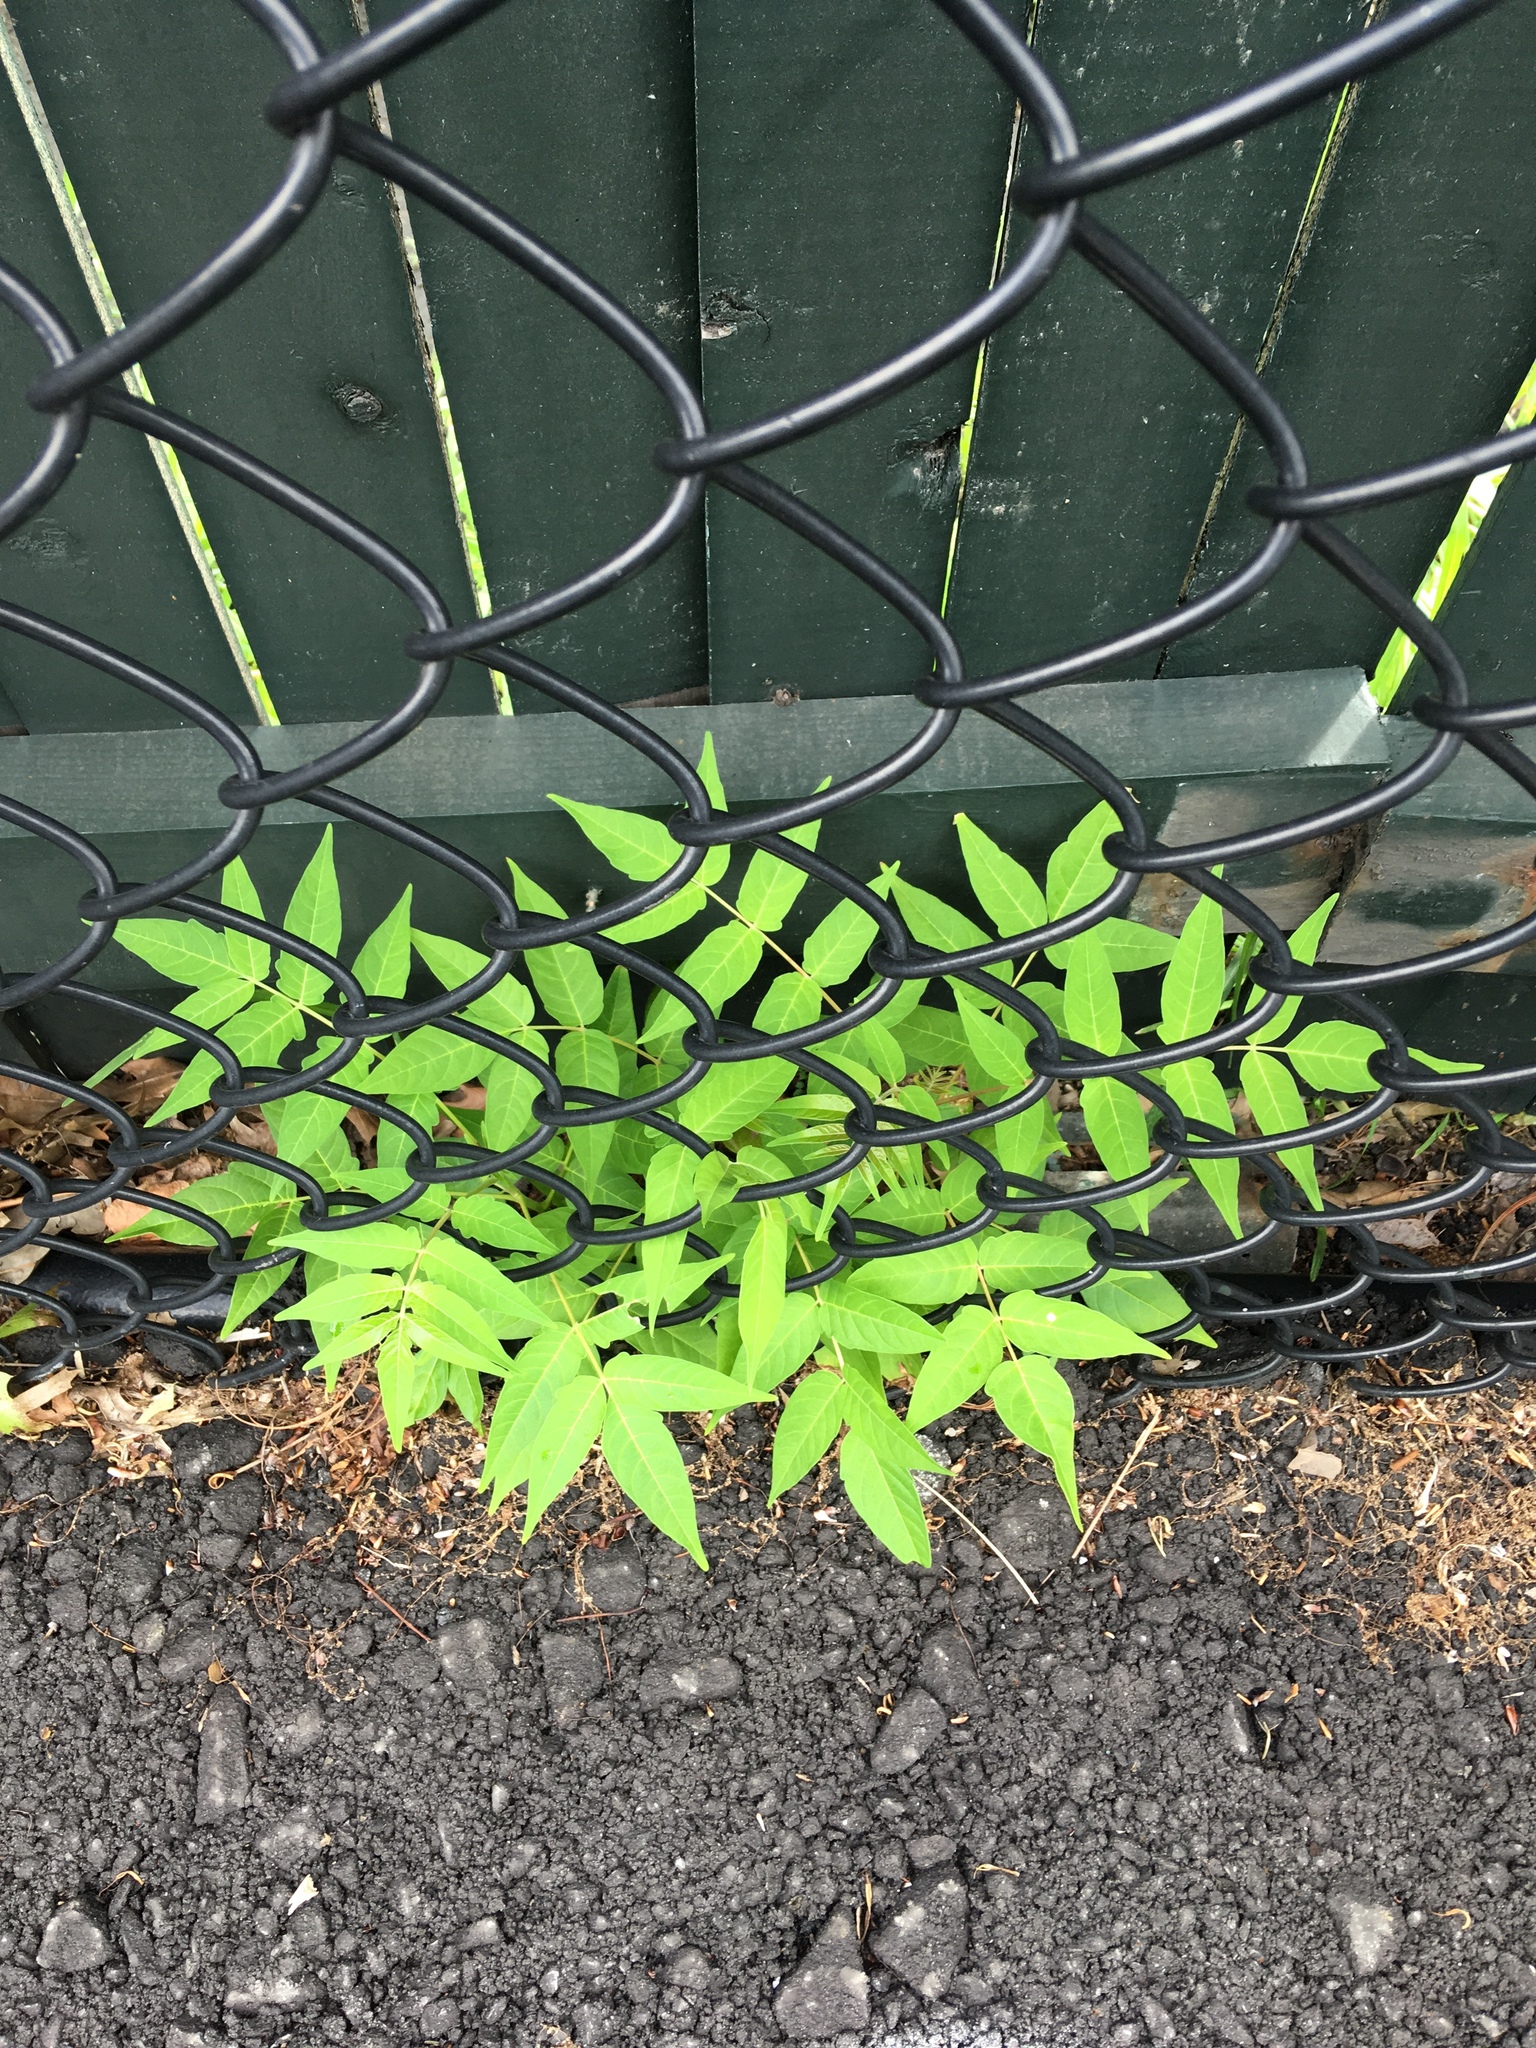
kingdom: Plantae
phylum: Tracheophyta
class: Magnoliopsida
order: Sapindales
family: Simaroubaceae
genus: Ailanthus
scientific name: Ailanthus altissima
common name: Tree-of-heaven
